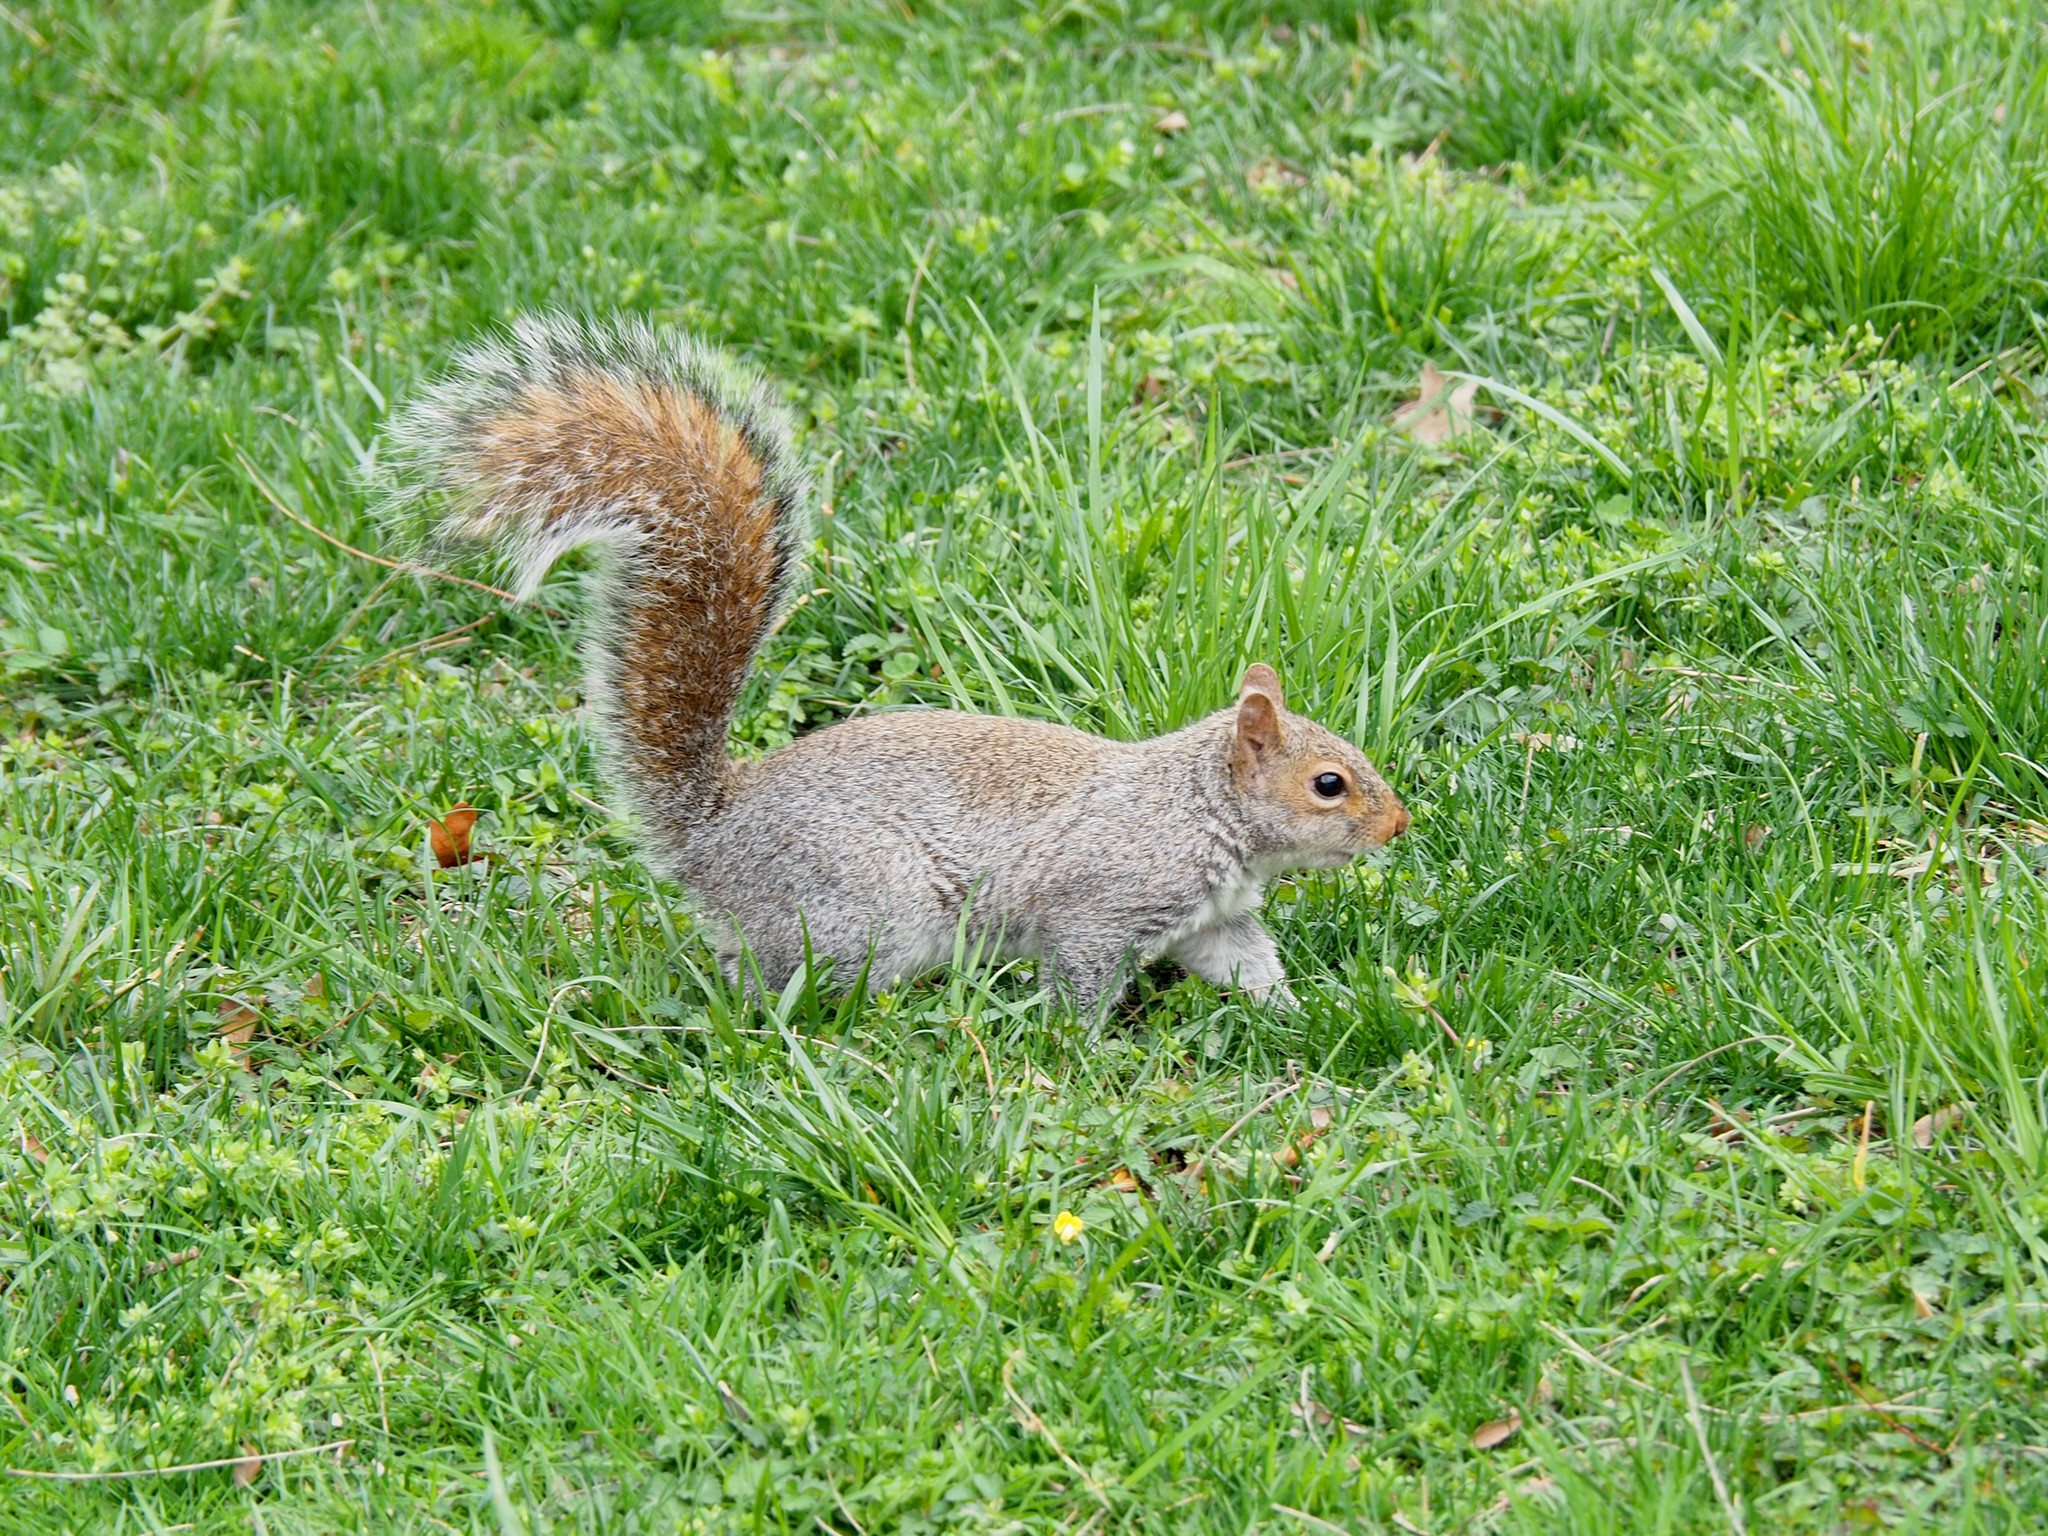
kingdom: Animalia
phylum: Chordata
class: Mammalia
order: Rodentia
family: Sciuridae
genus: Sciurus
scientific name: Sciurus carolinensis
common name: Eastern gray squirrel
